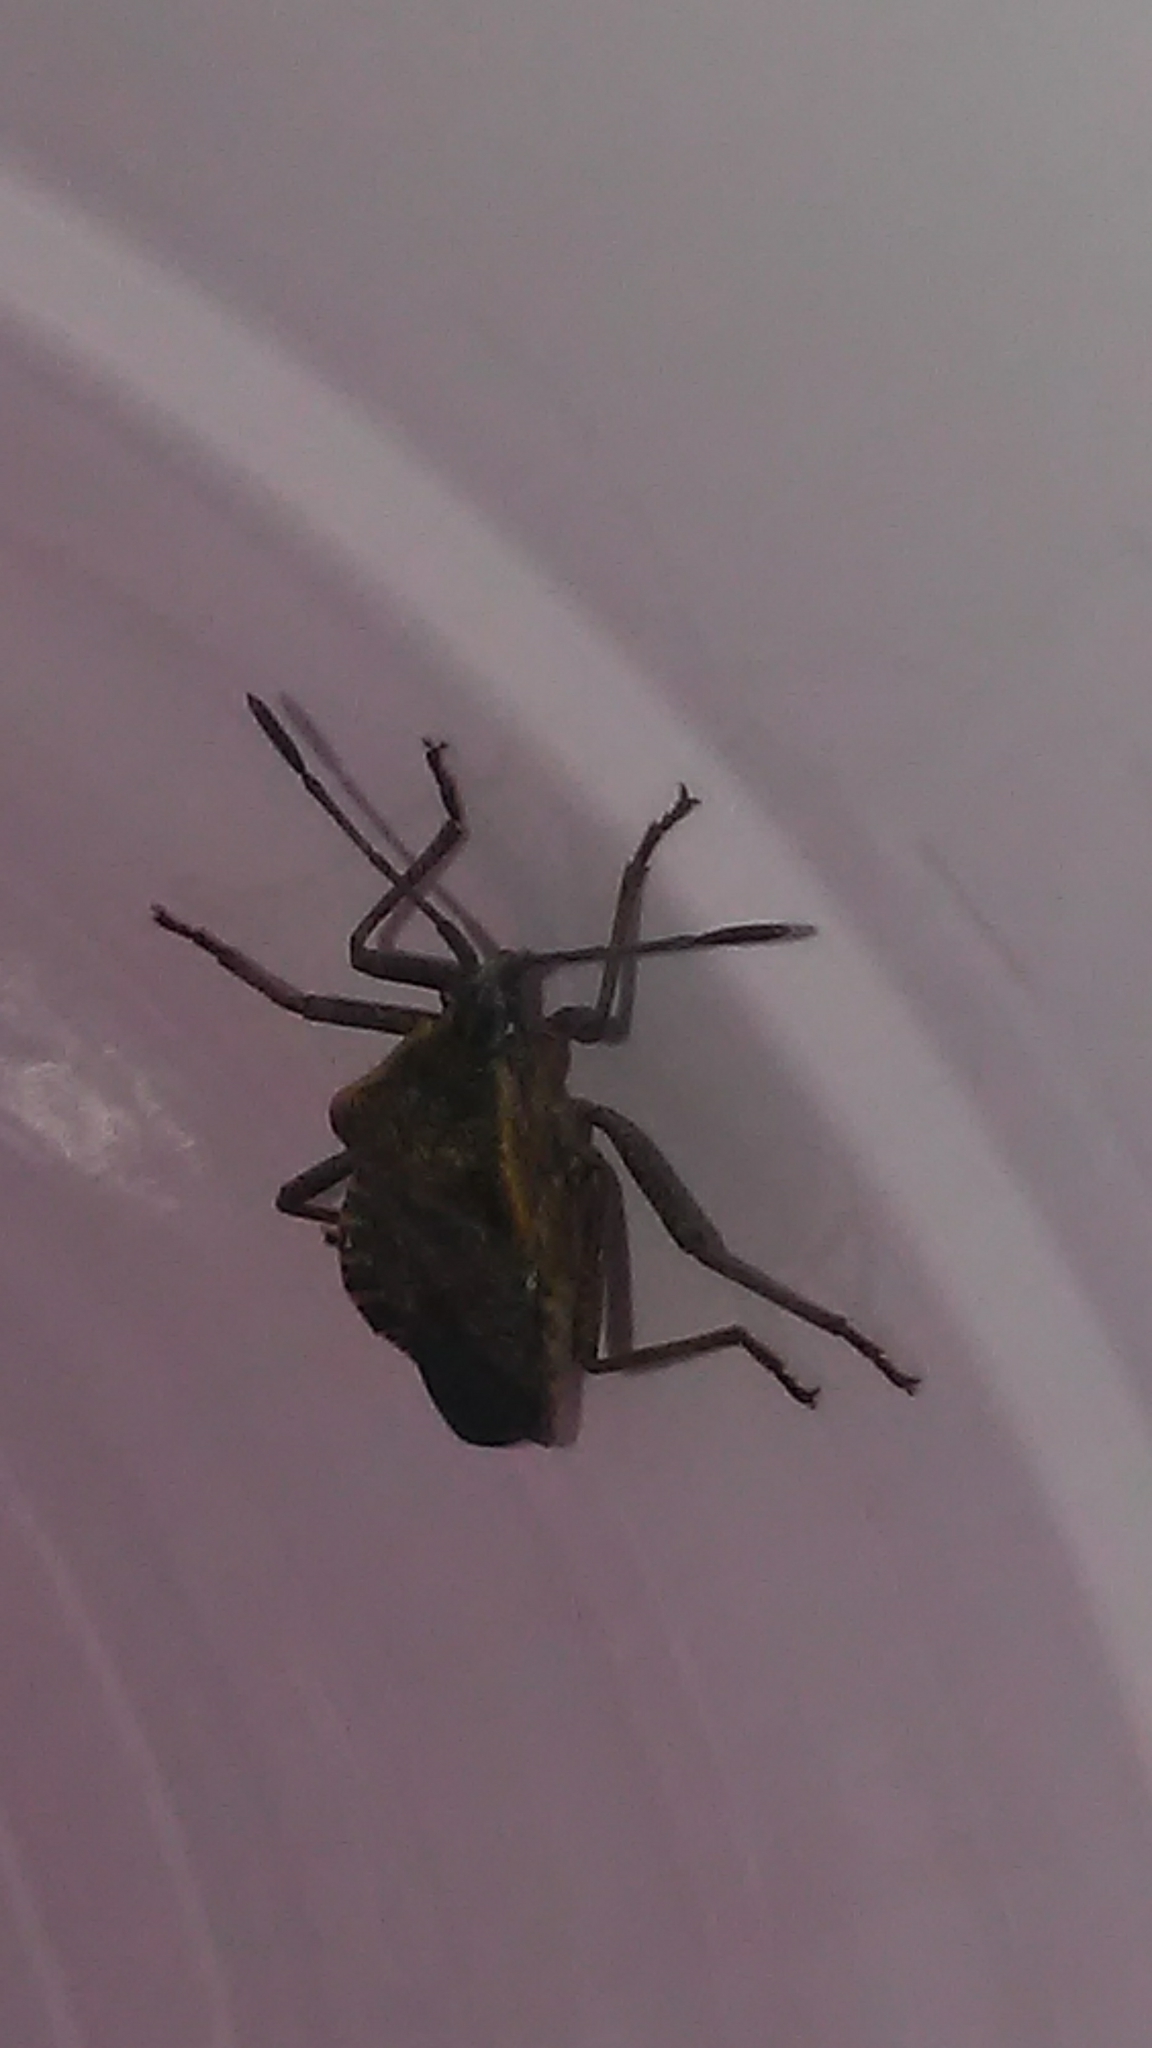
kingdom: Animalia
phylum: Arthropoda
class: Insecta
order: Hemiptera
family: Coreidae
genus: Anasa
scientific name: Anasa tristis
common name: Squash bug
